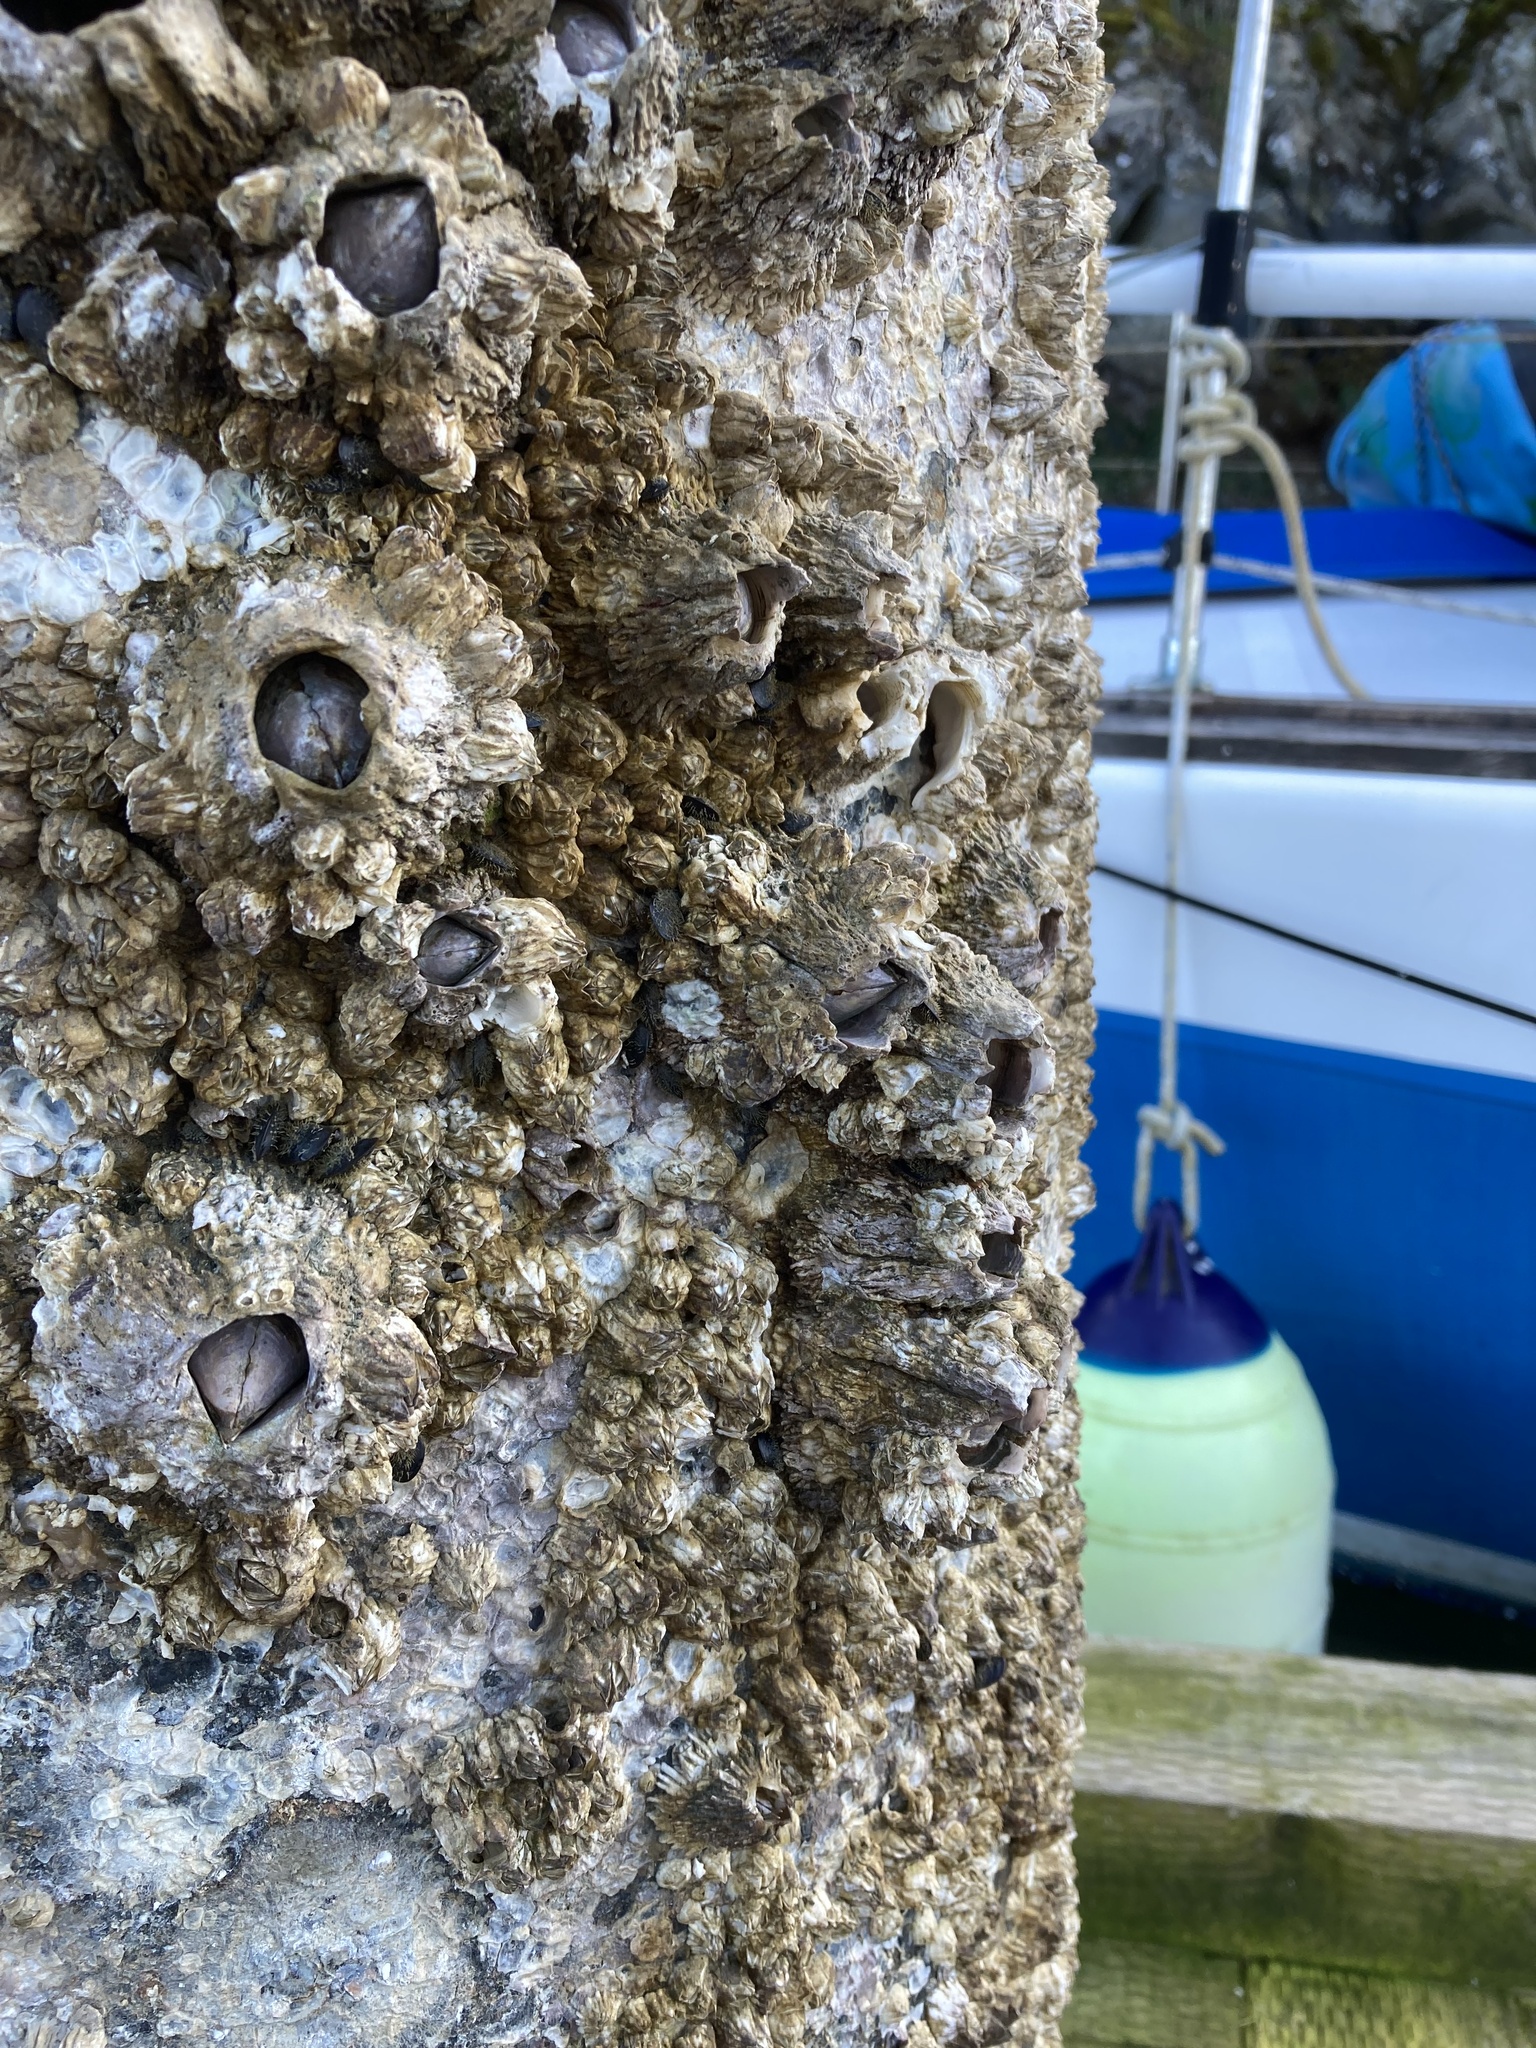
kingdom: Animalia
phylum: Arthropoda
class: Maxillopoda
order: Sessilia
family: Archaeobalanidae
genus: Semibalanus
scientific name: Semibalanus cariosus
